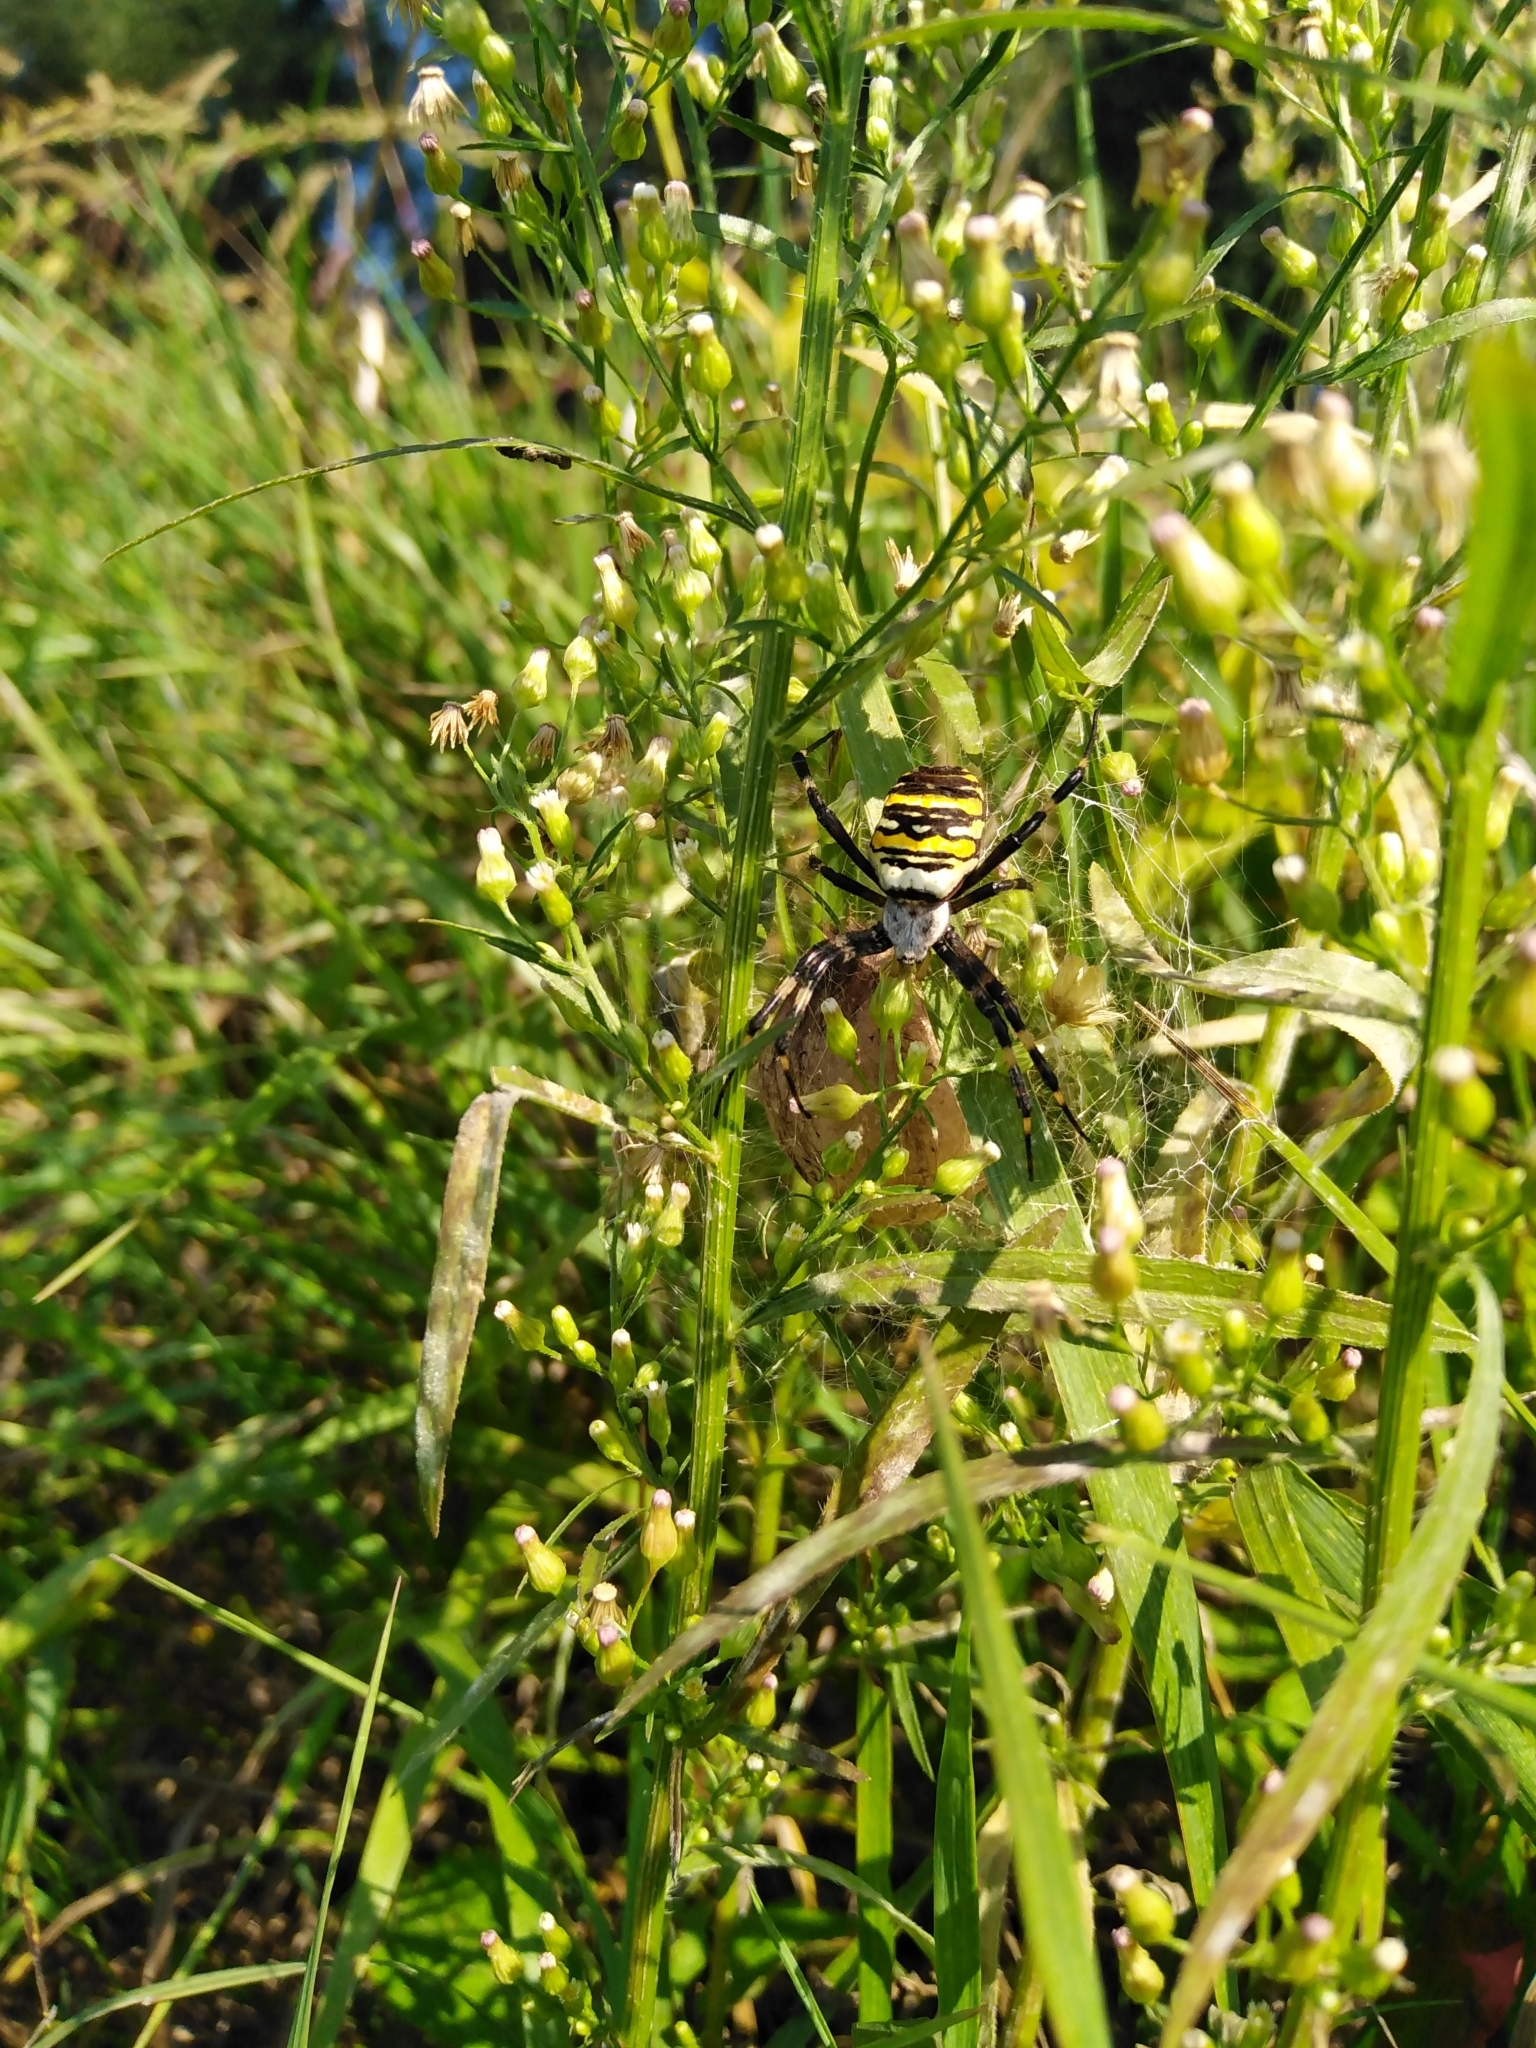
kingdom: Animalia
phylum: Arthropoda
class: Arachnida
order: Araneae
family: Araneidae
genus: Argiope
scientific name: Argiope bruennichi
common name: Wasp spider
